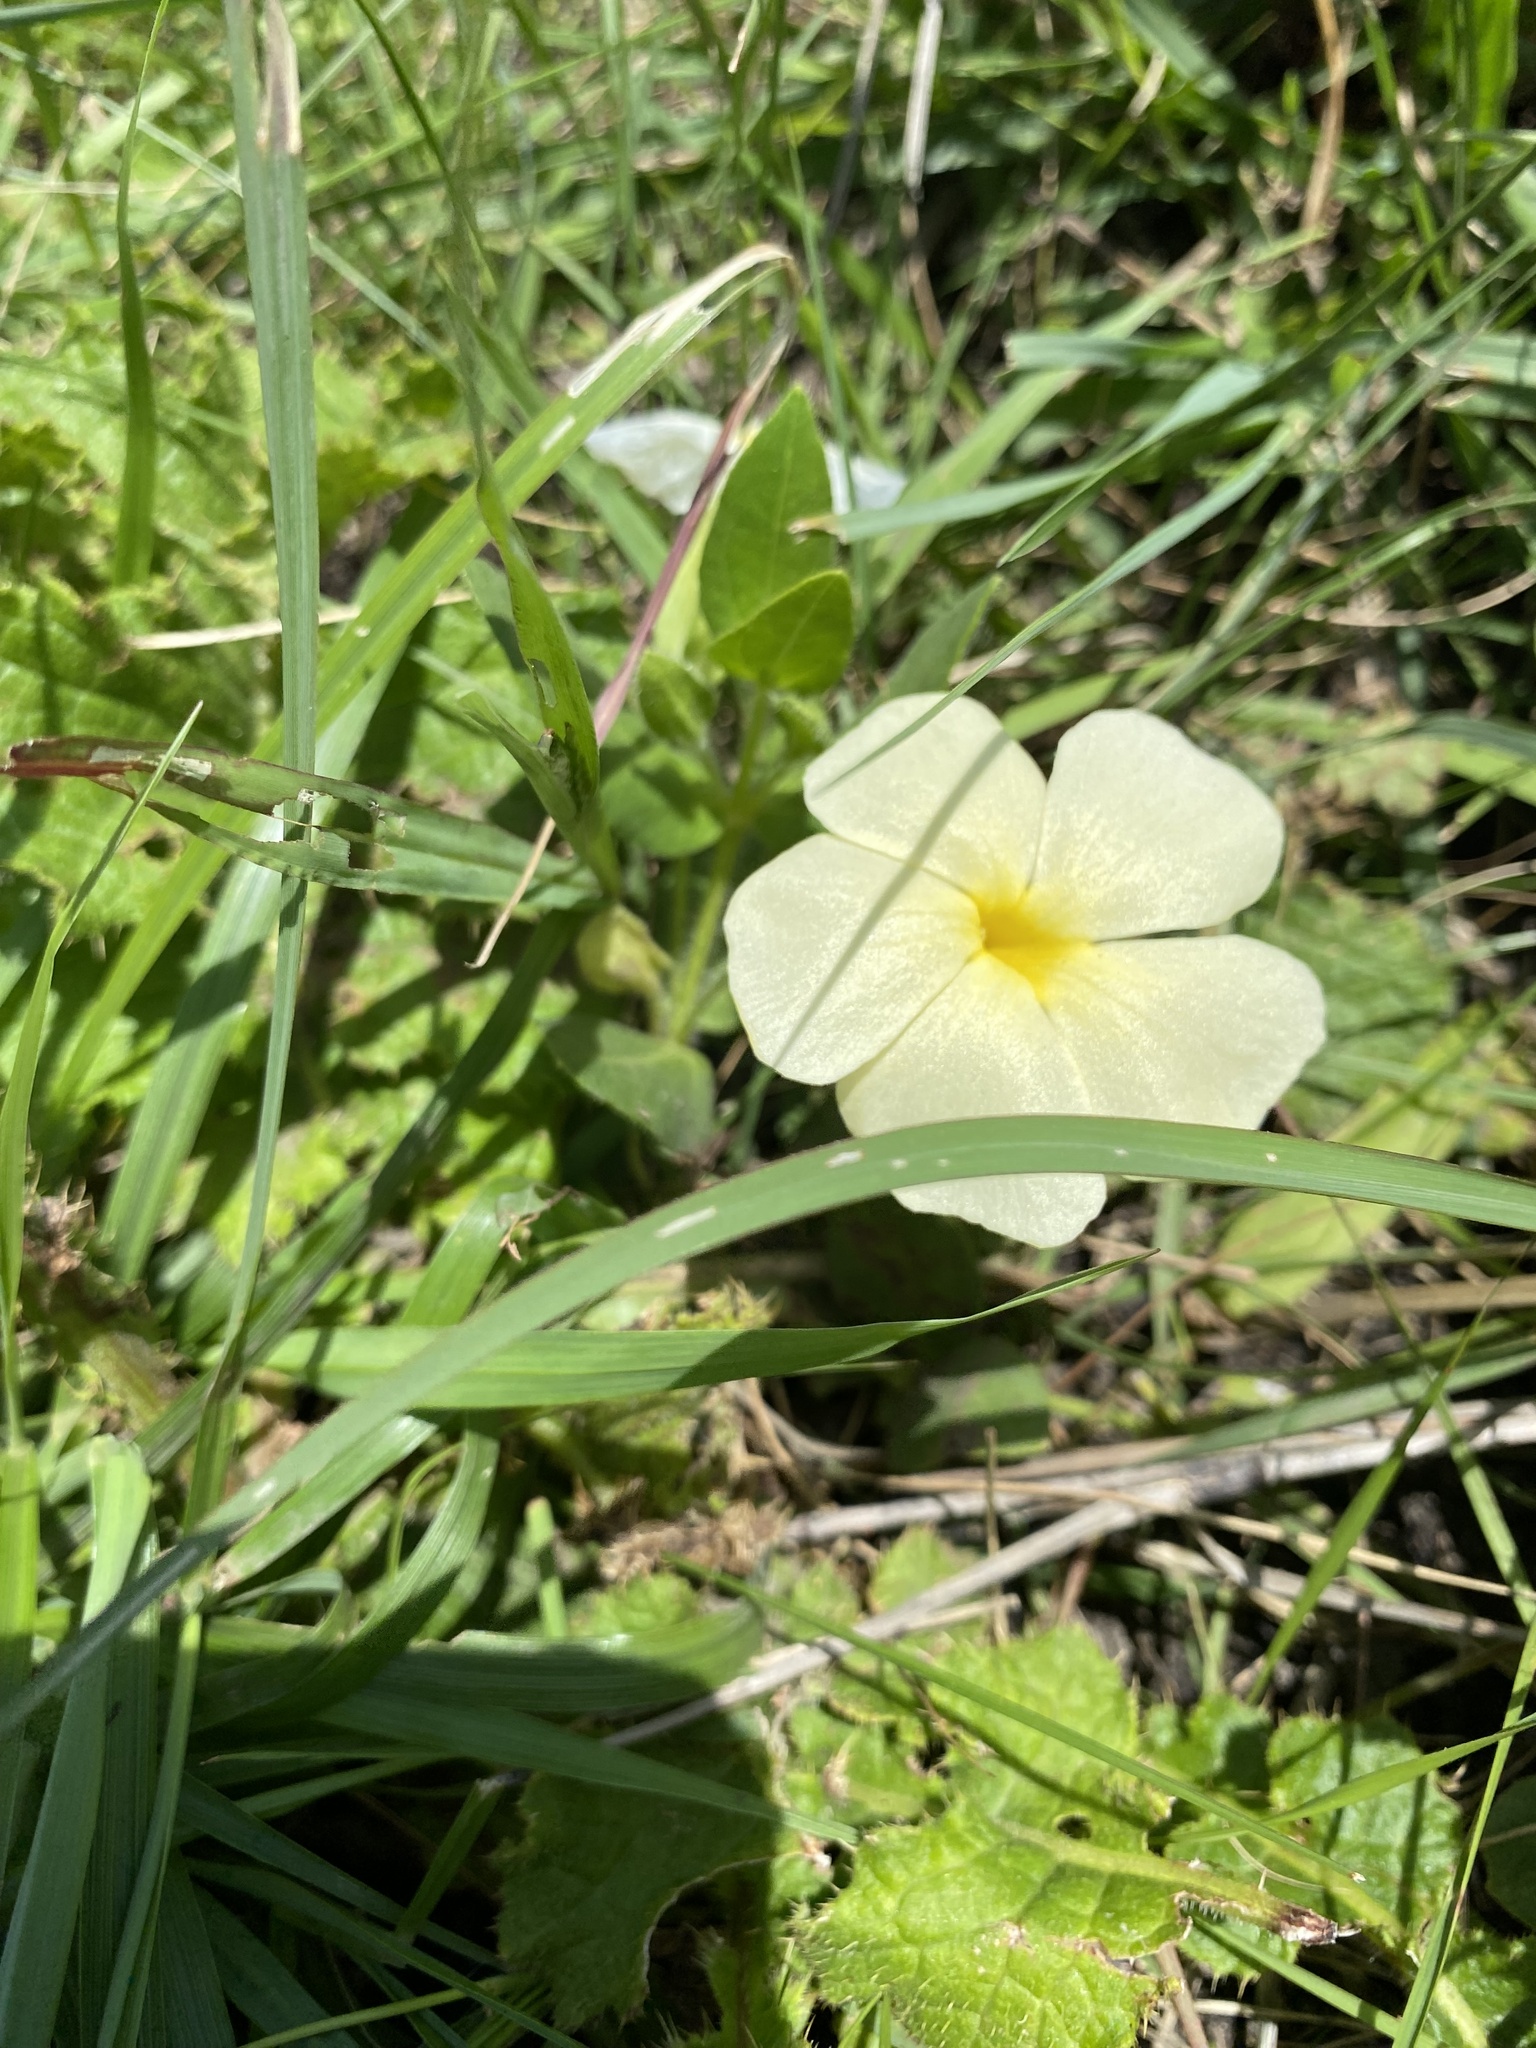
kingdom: Plantae
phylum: Tracheophyta
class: Magnoliopsida
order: Lamiales
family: Acanthaceae
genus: Thunbergia
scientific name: Thunbergia atriplicifolia
